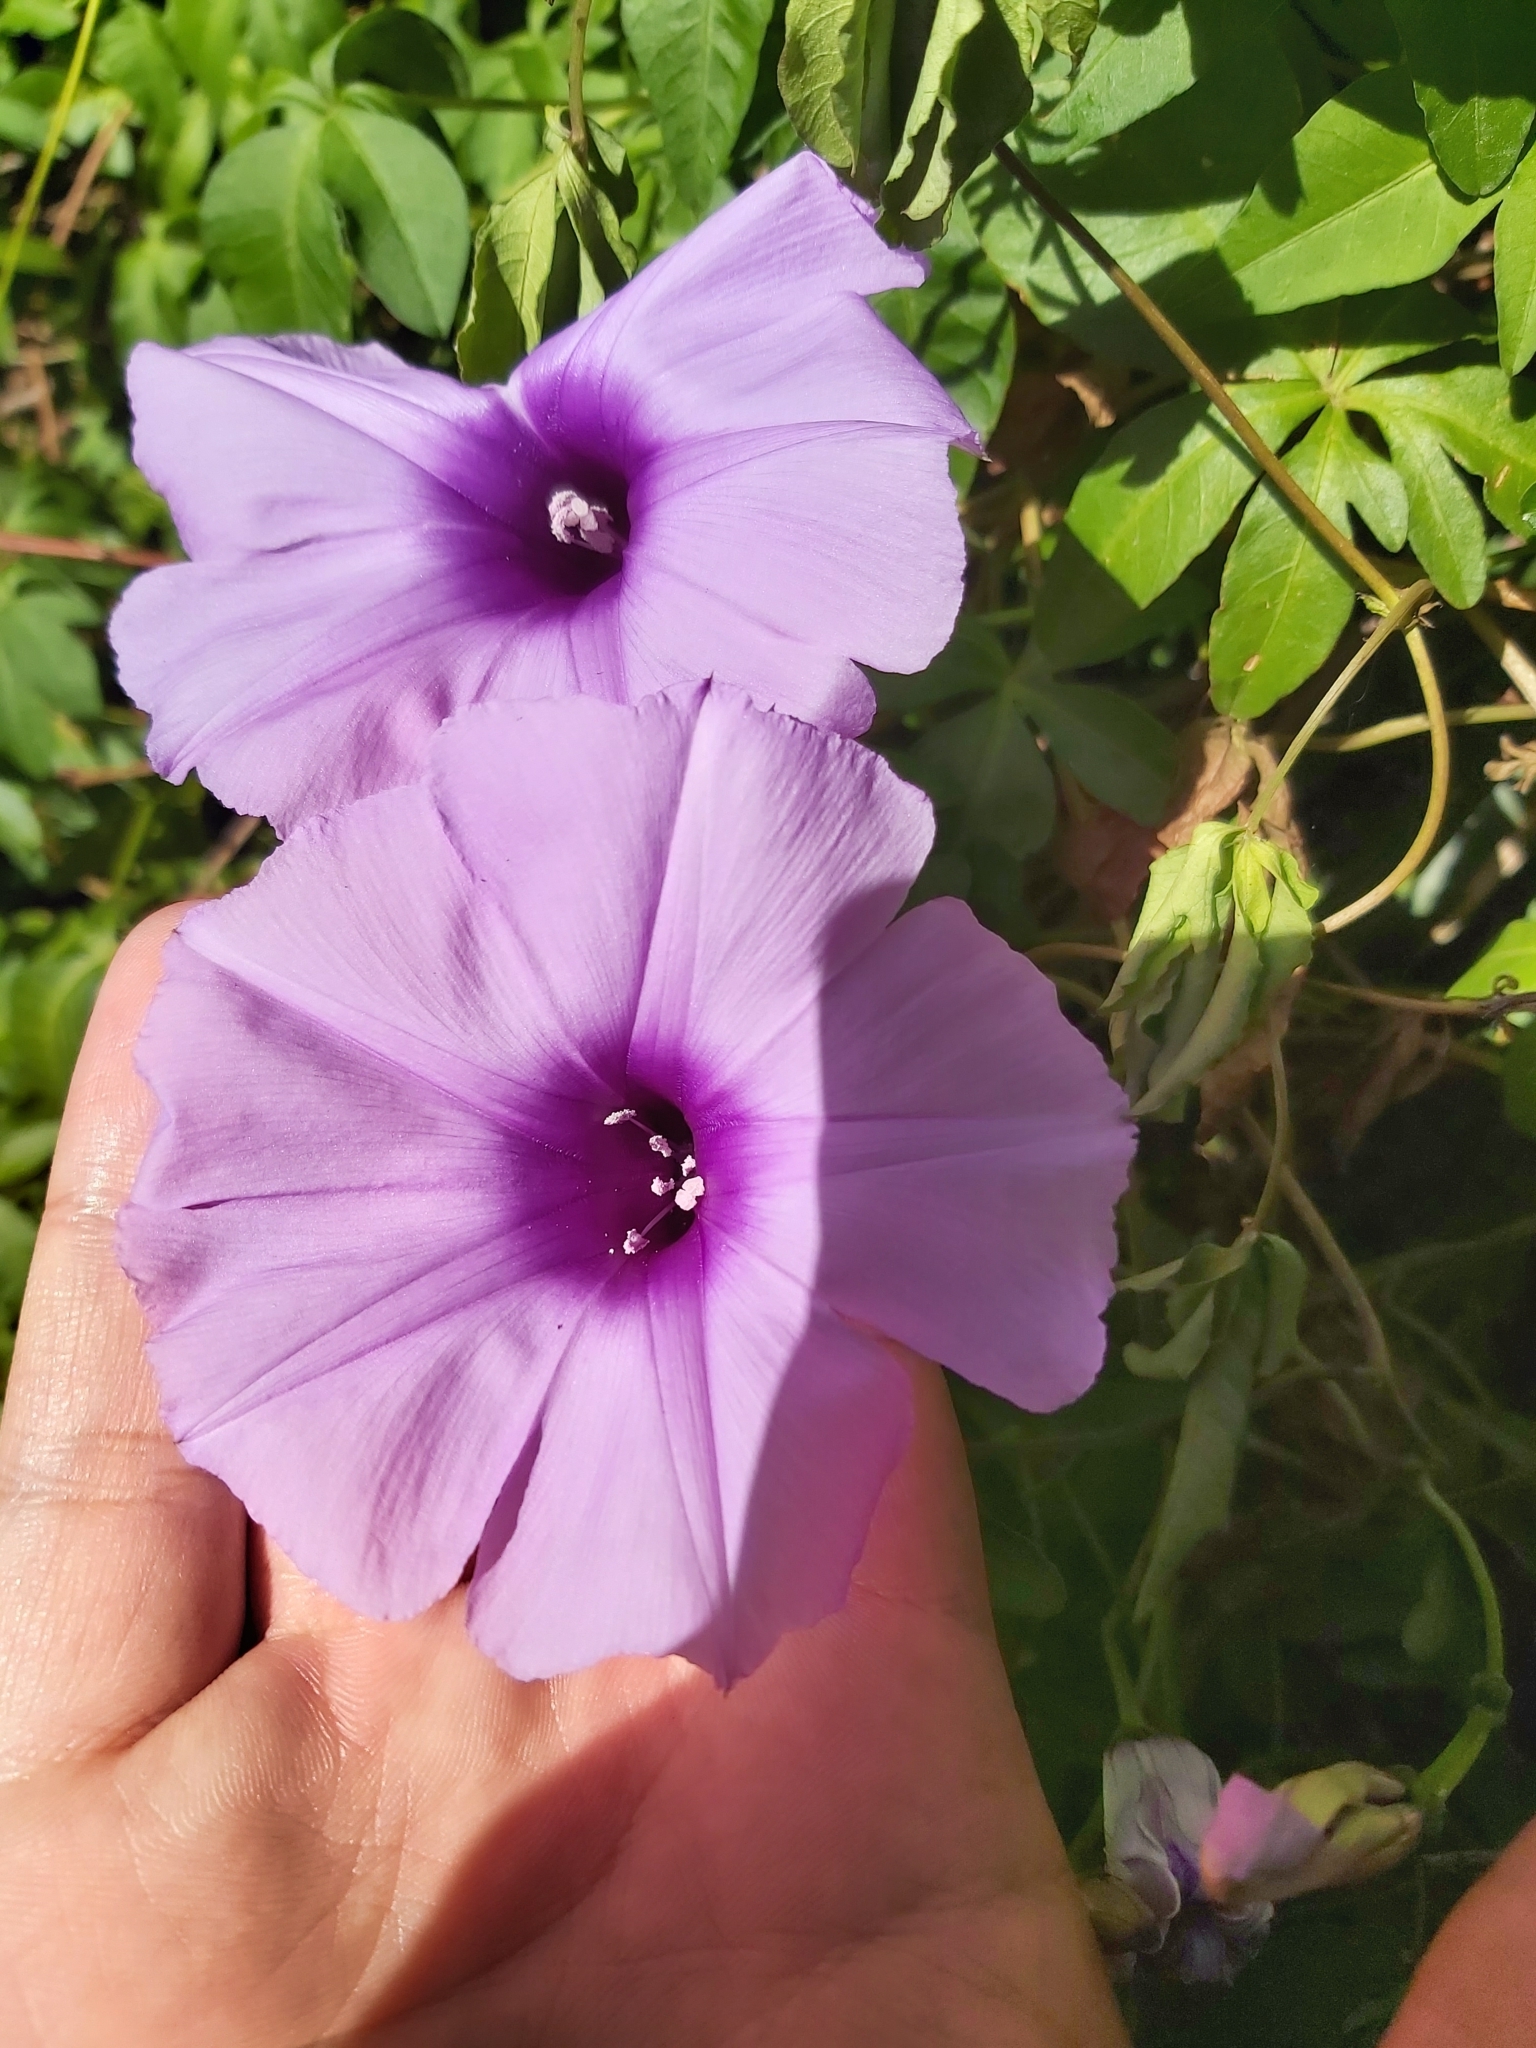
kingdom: Plantae
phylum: Tracheophyta
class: Magnoliopsida
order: Solanales
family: Convolvulaceae
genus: Ipomoea
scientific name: Ipomoea cairica
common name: Mile a minute vine
